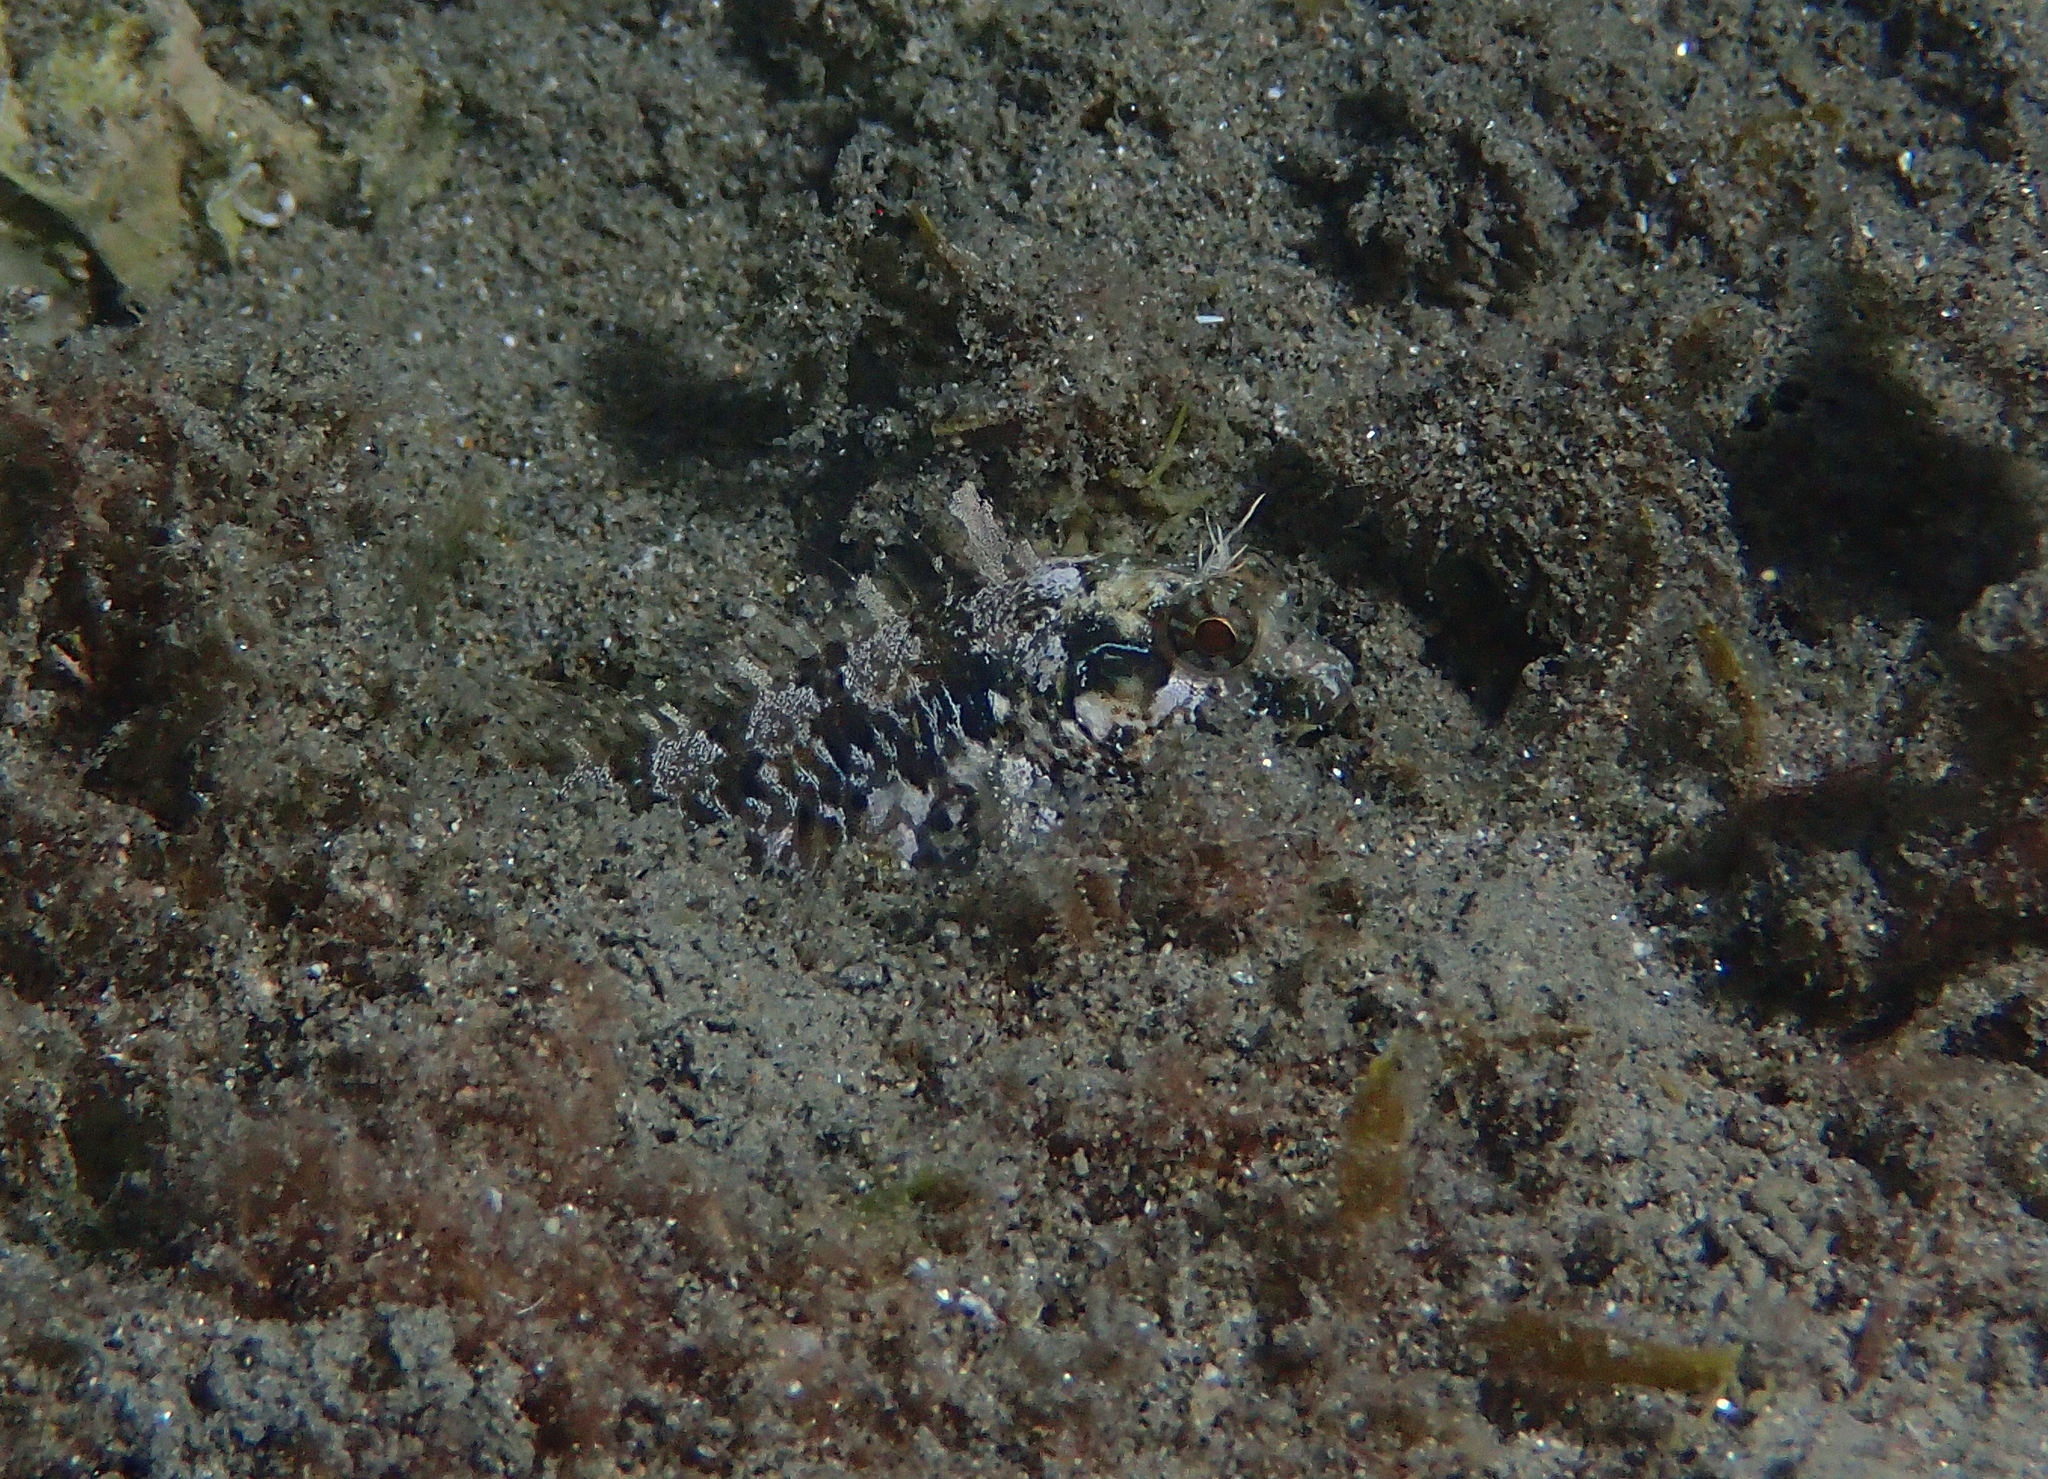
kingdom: Animalia
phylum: Chordata
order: Perciformes
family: Blenniidae
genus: Parablennius
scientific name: Parablennius incognitus
